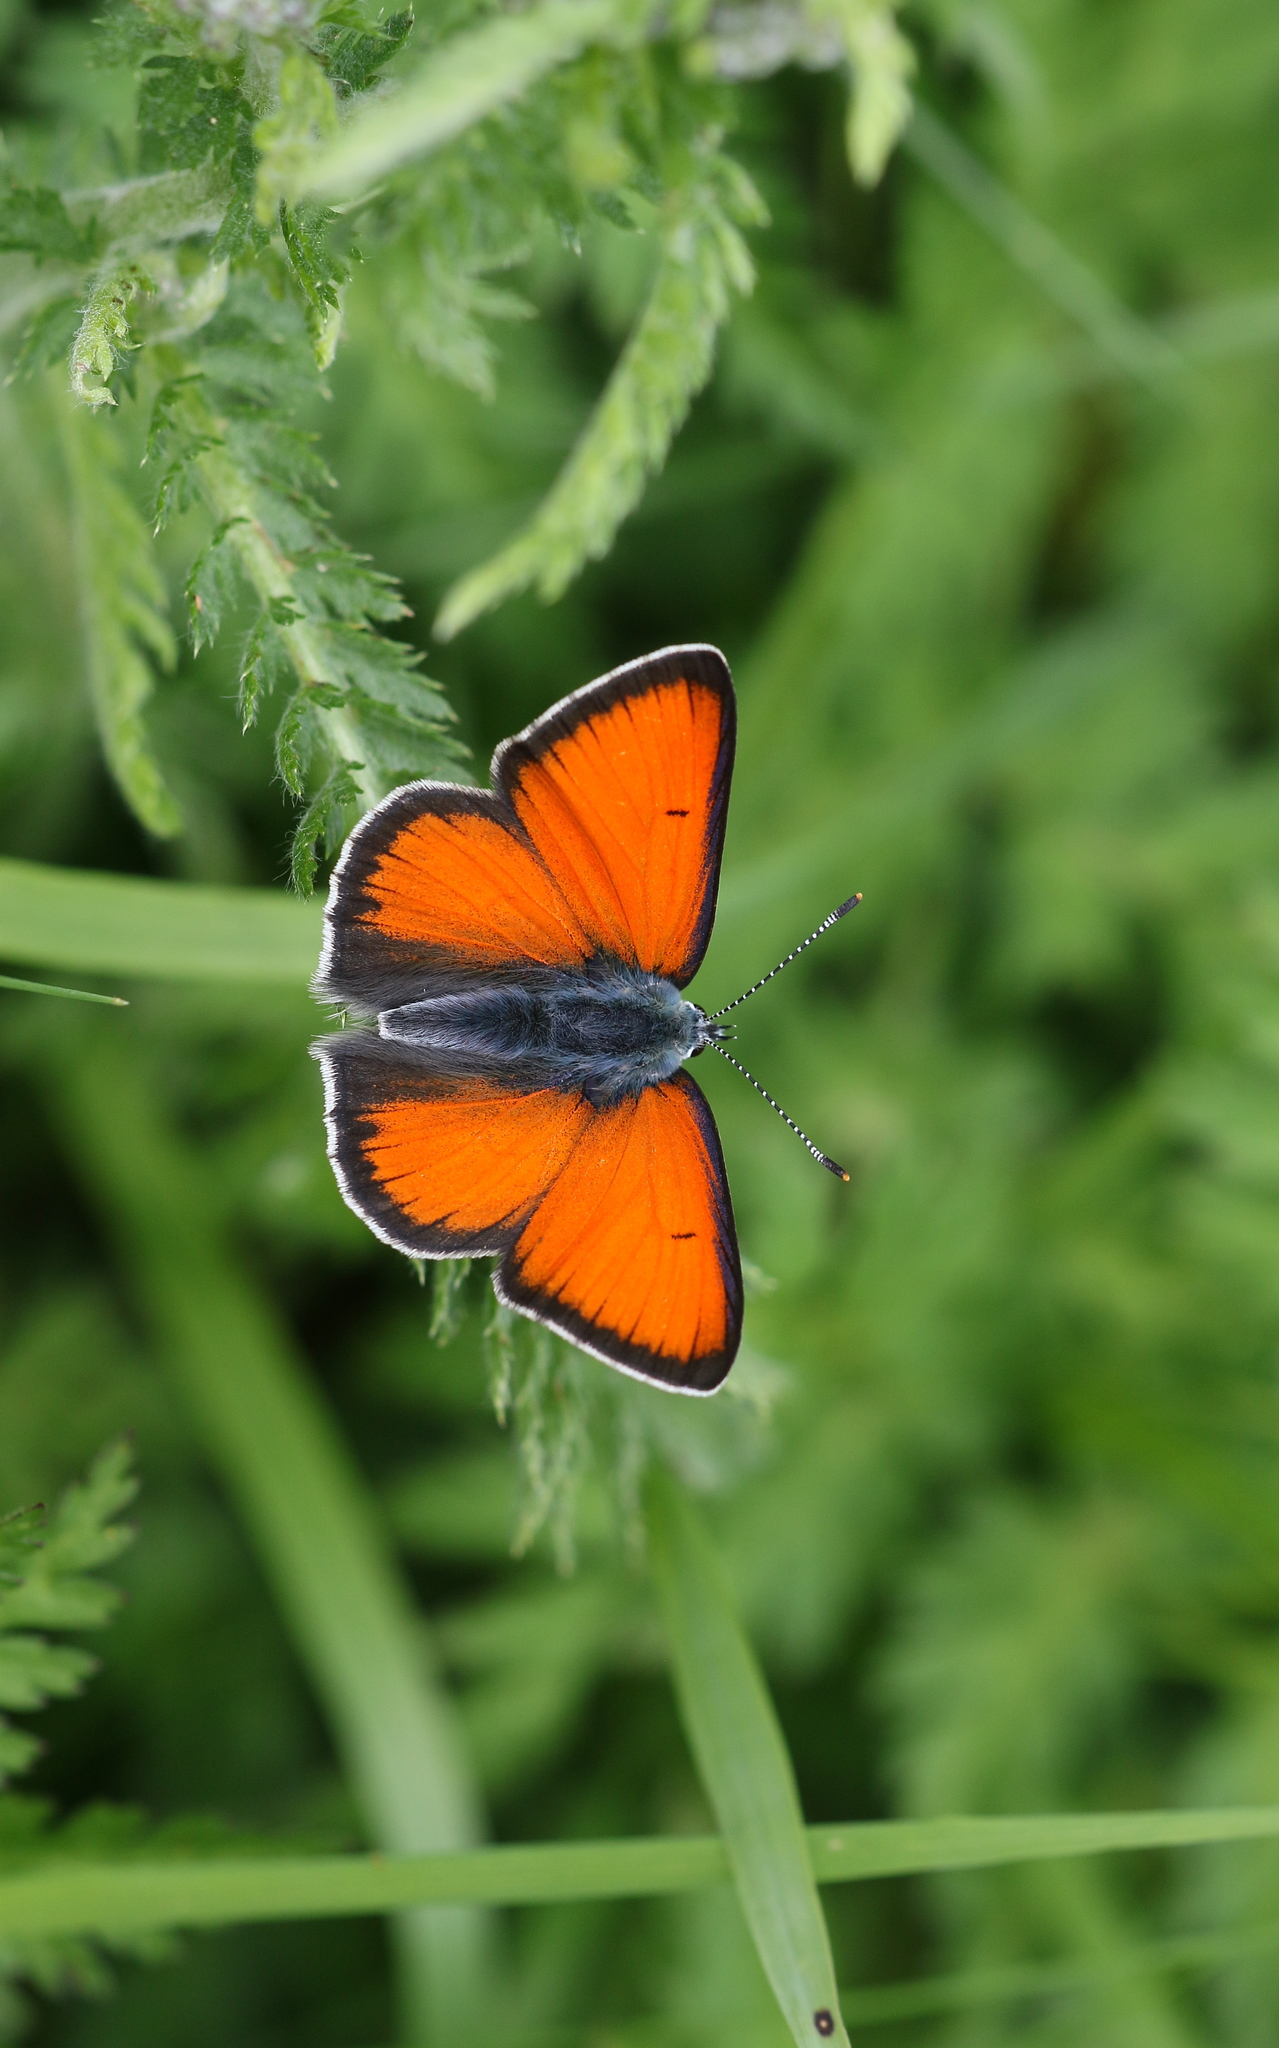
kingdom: Animalia
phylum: Arthropoda
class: Insecta
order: Lepidoptera
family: Lycaenidae
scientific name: Lycaenidae
